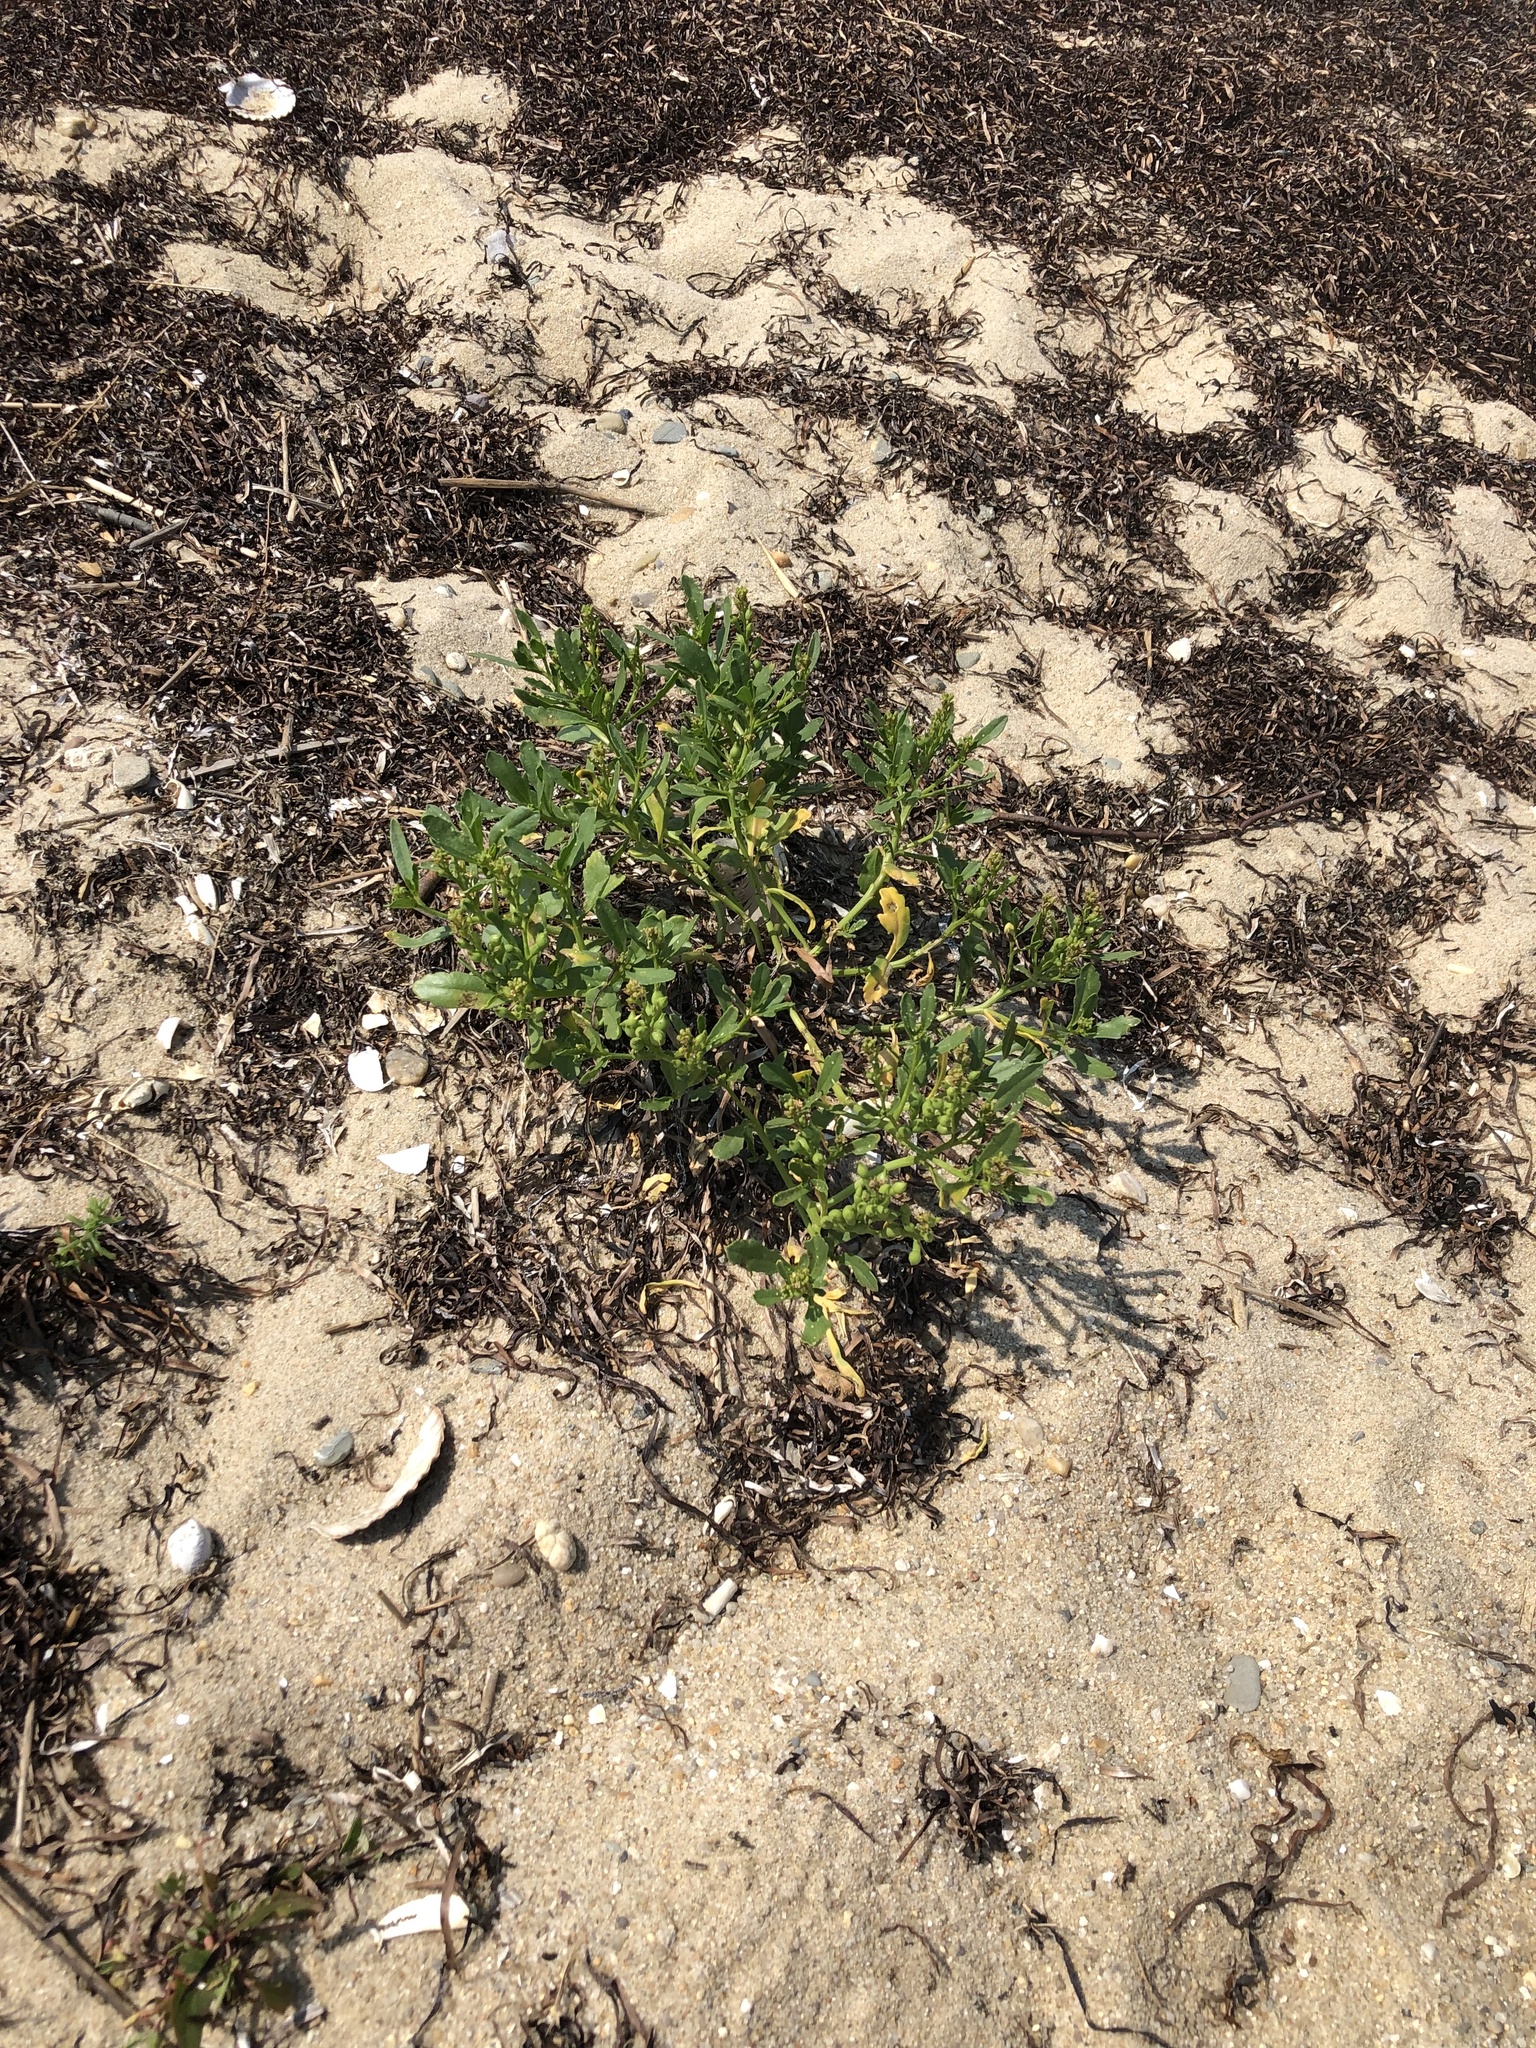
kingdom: Plantae
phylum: Tracheophyta
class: Magnoliopsida
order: Brassicales
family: Brassicaceae
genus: Cakile
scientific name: Cakile edentula
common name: American sea rocket
